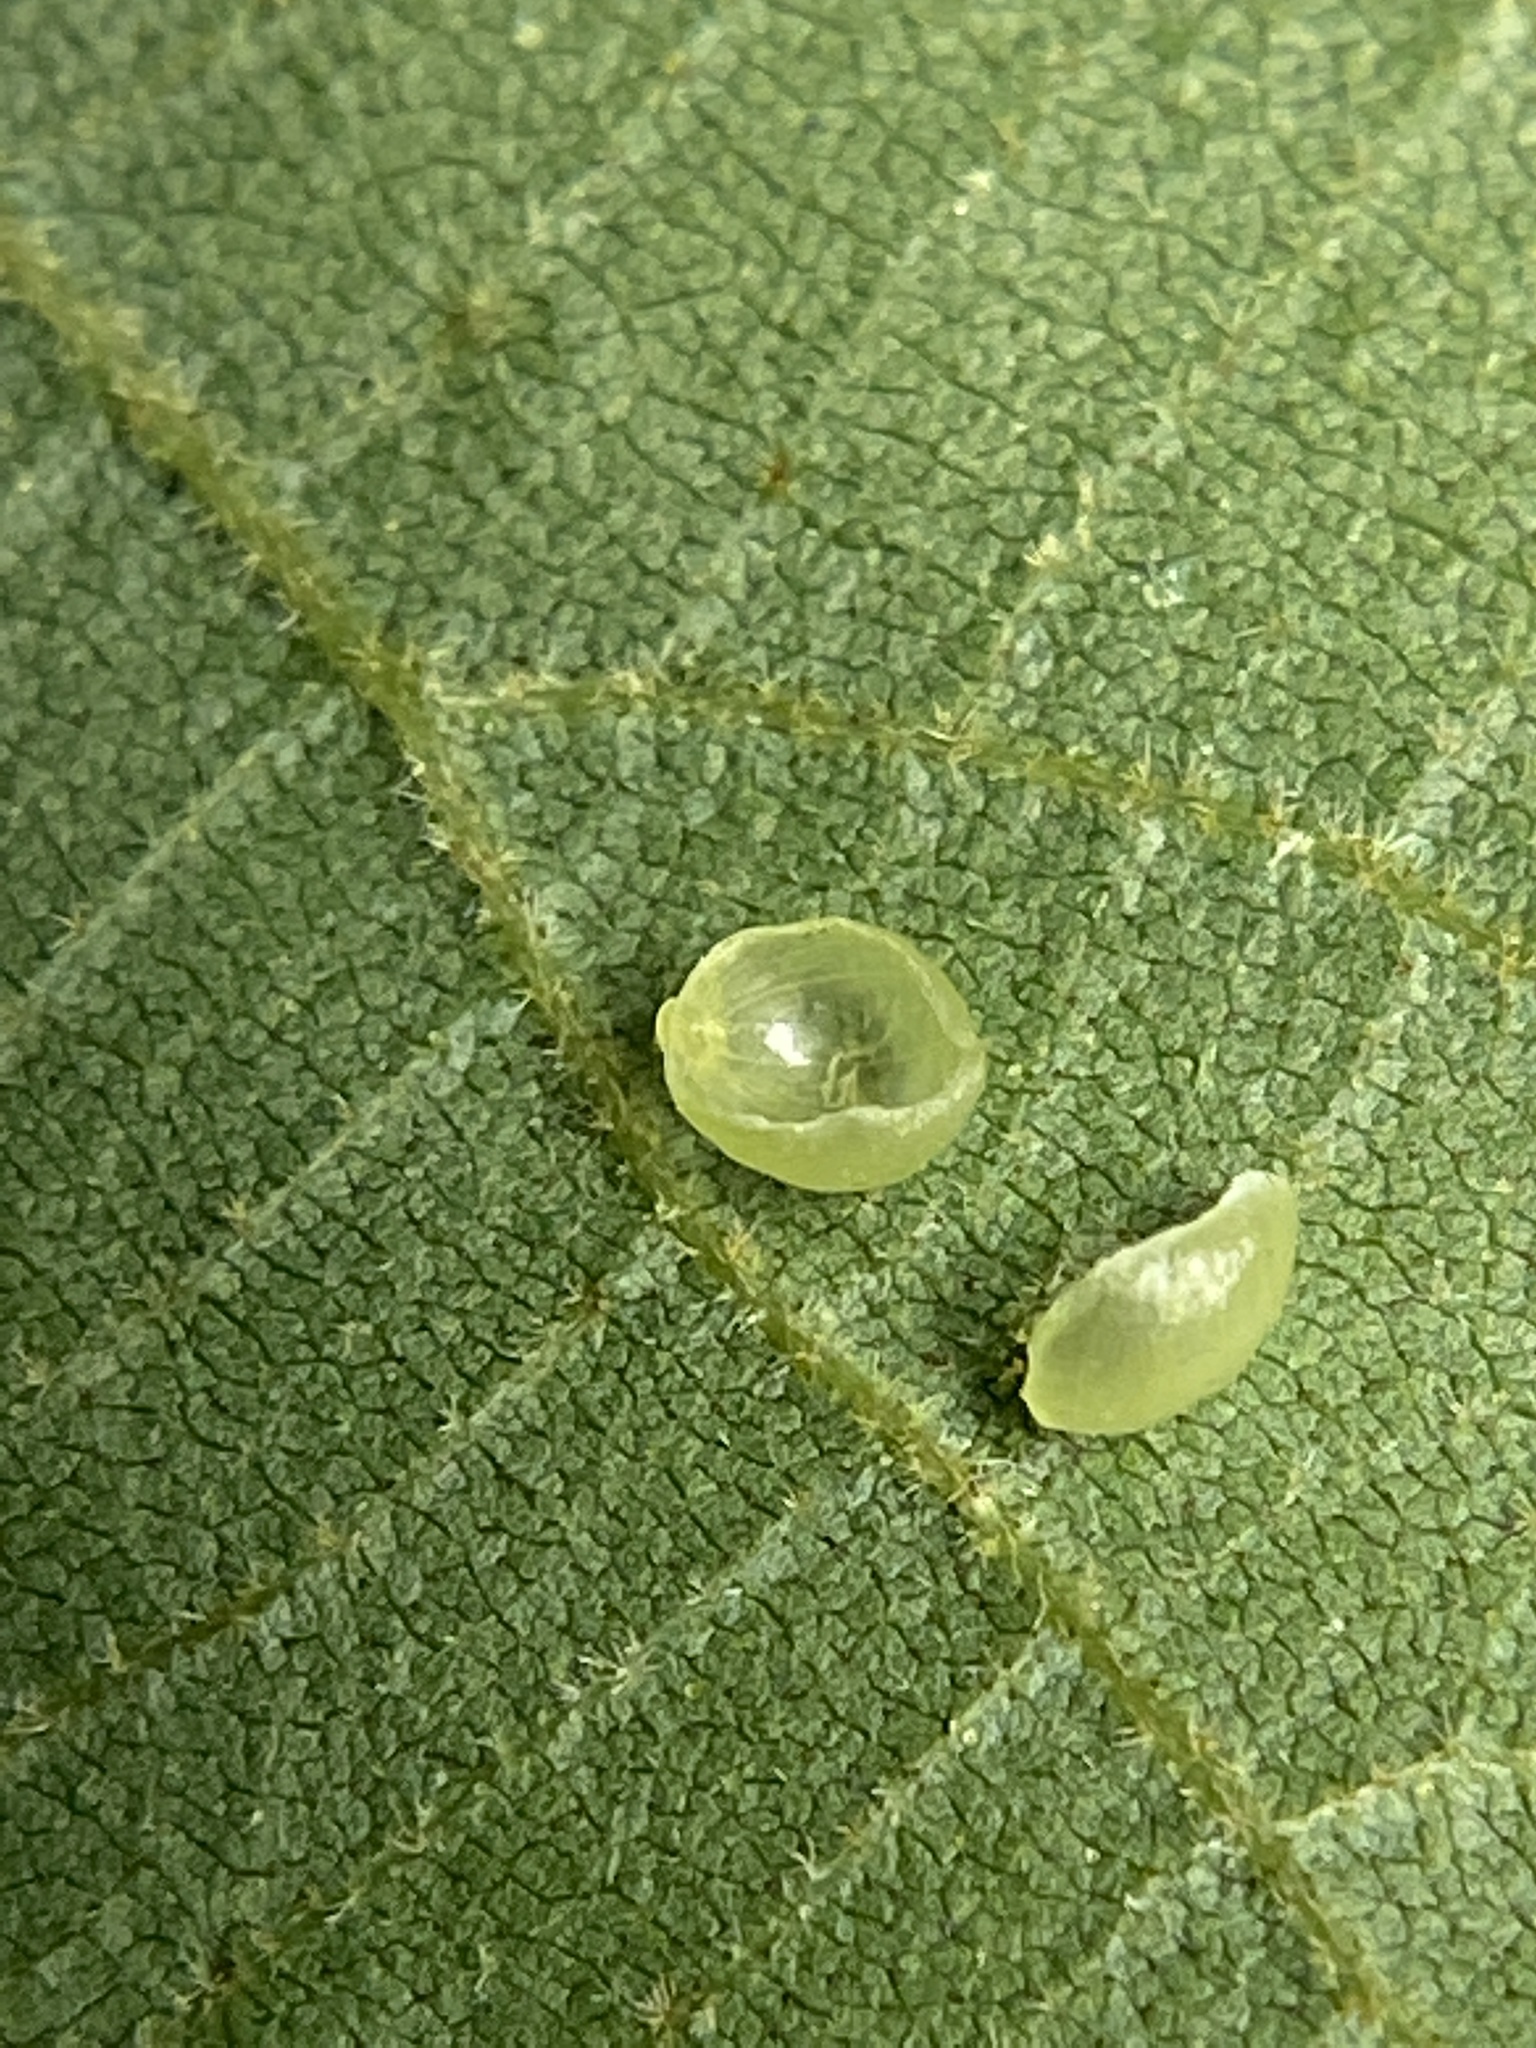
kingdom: Animalia
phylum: Arthropoda
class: Insecta
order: Diptera
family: Cecidomyiidae
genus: Caryomyia
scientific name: Caryomyia leviglobus
